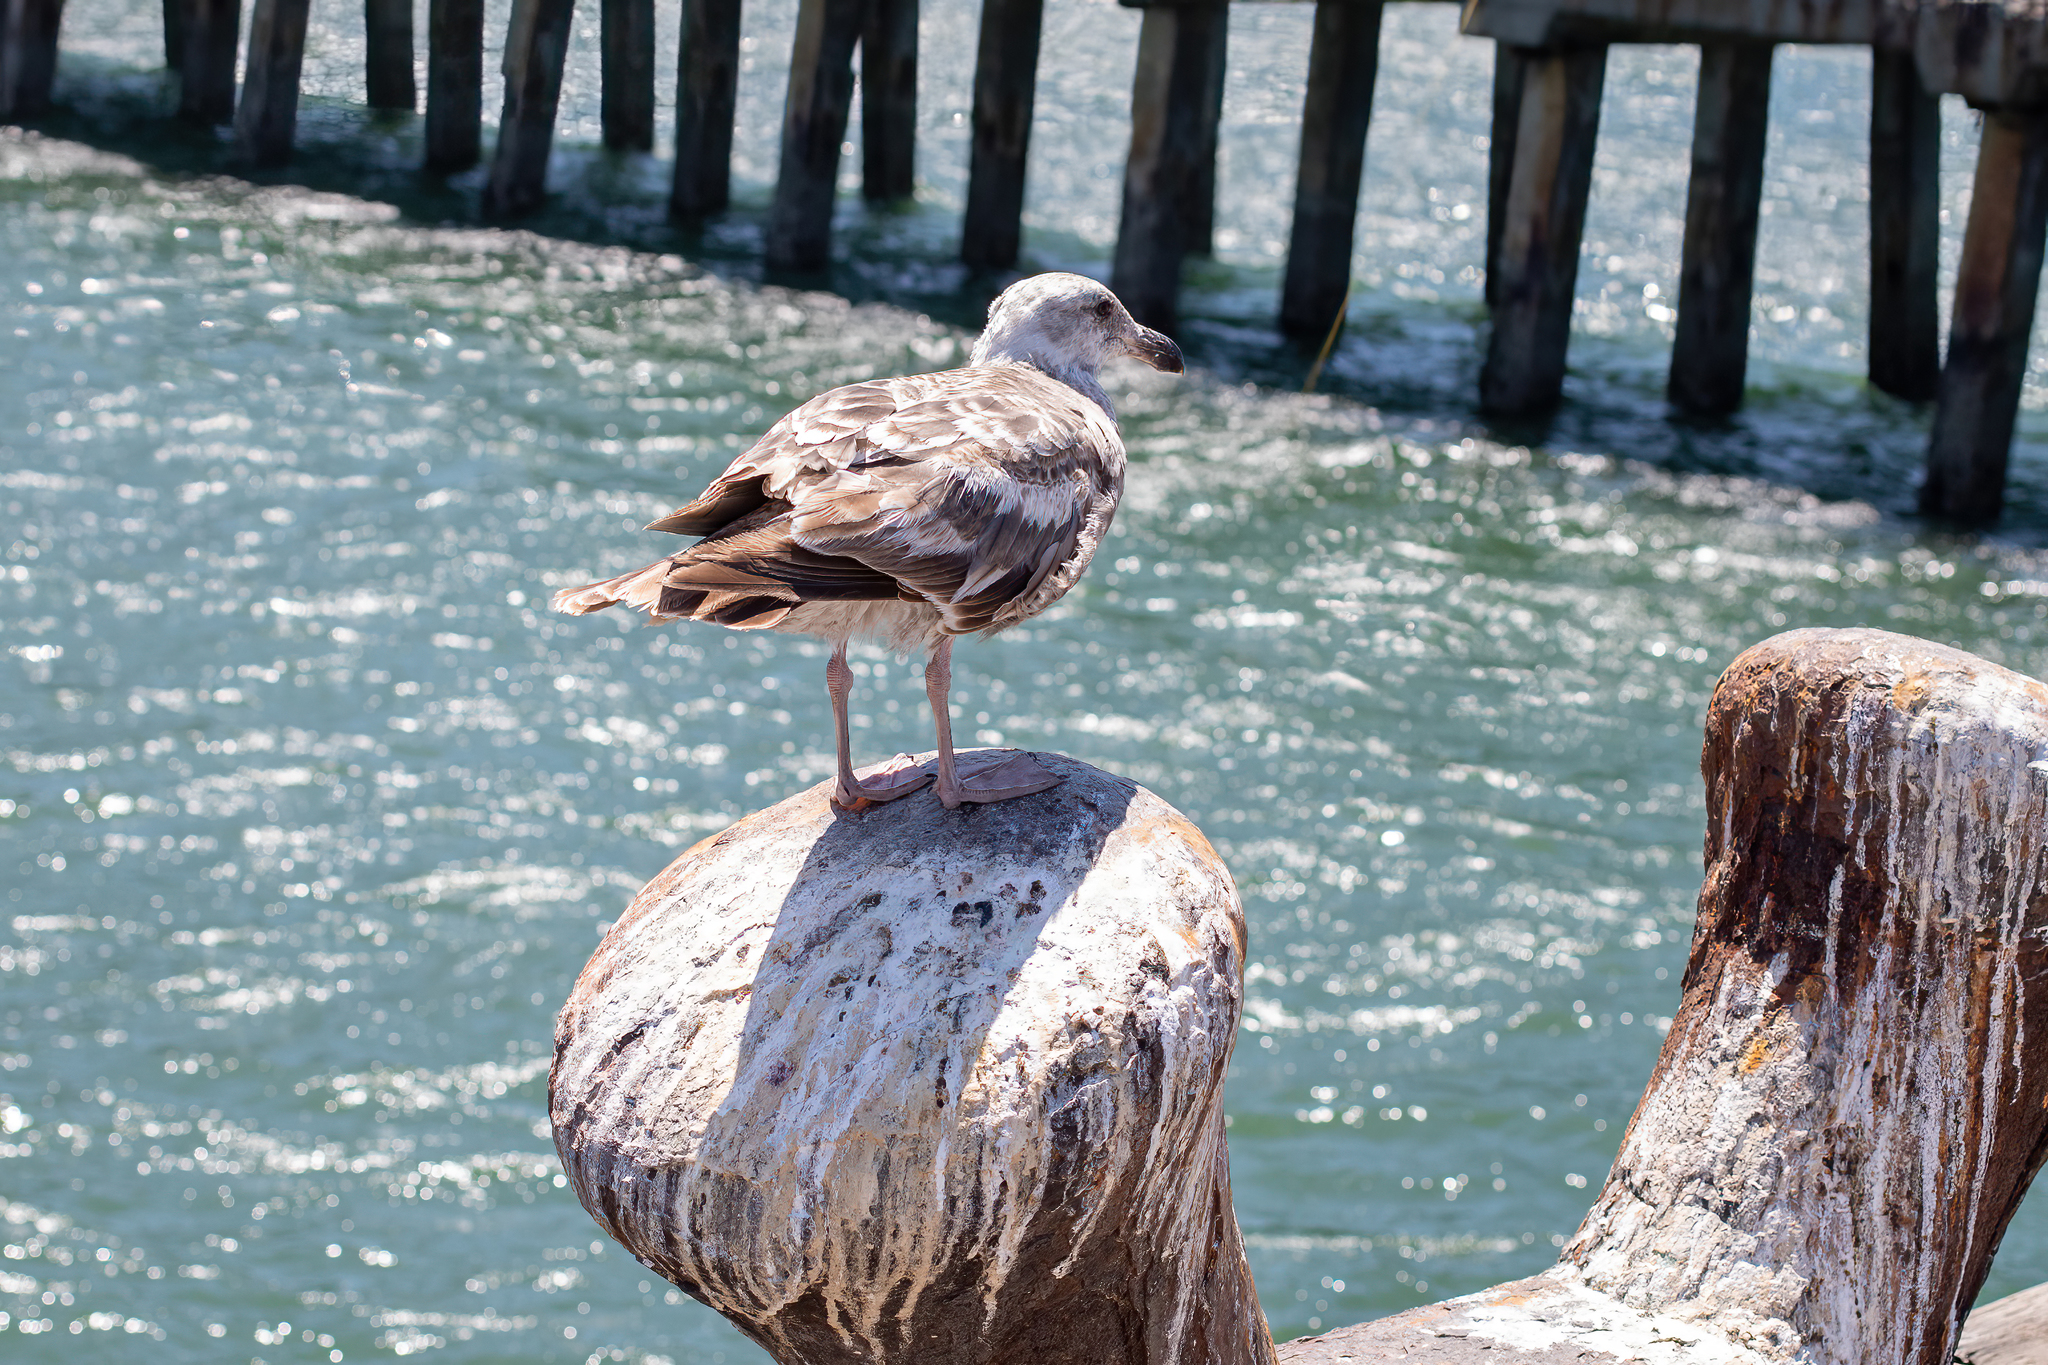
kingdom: Animalia
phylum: Chordata
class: Aves
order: Charadriiformes
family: Laridae
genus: Larus
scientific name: Larus occidentalis
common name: Western gull
